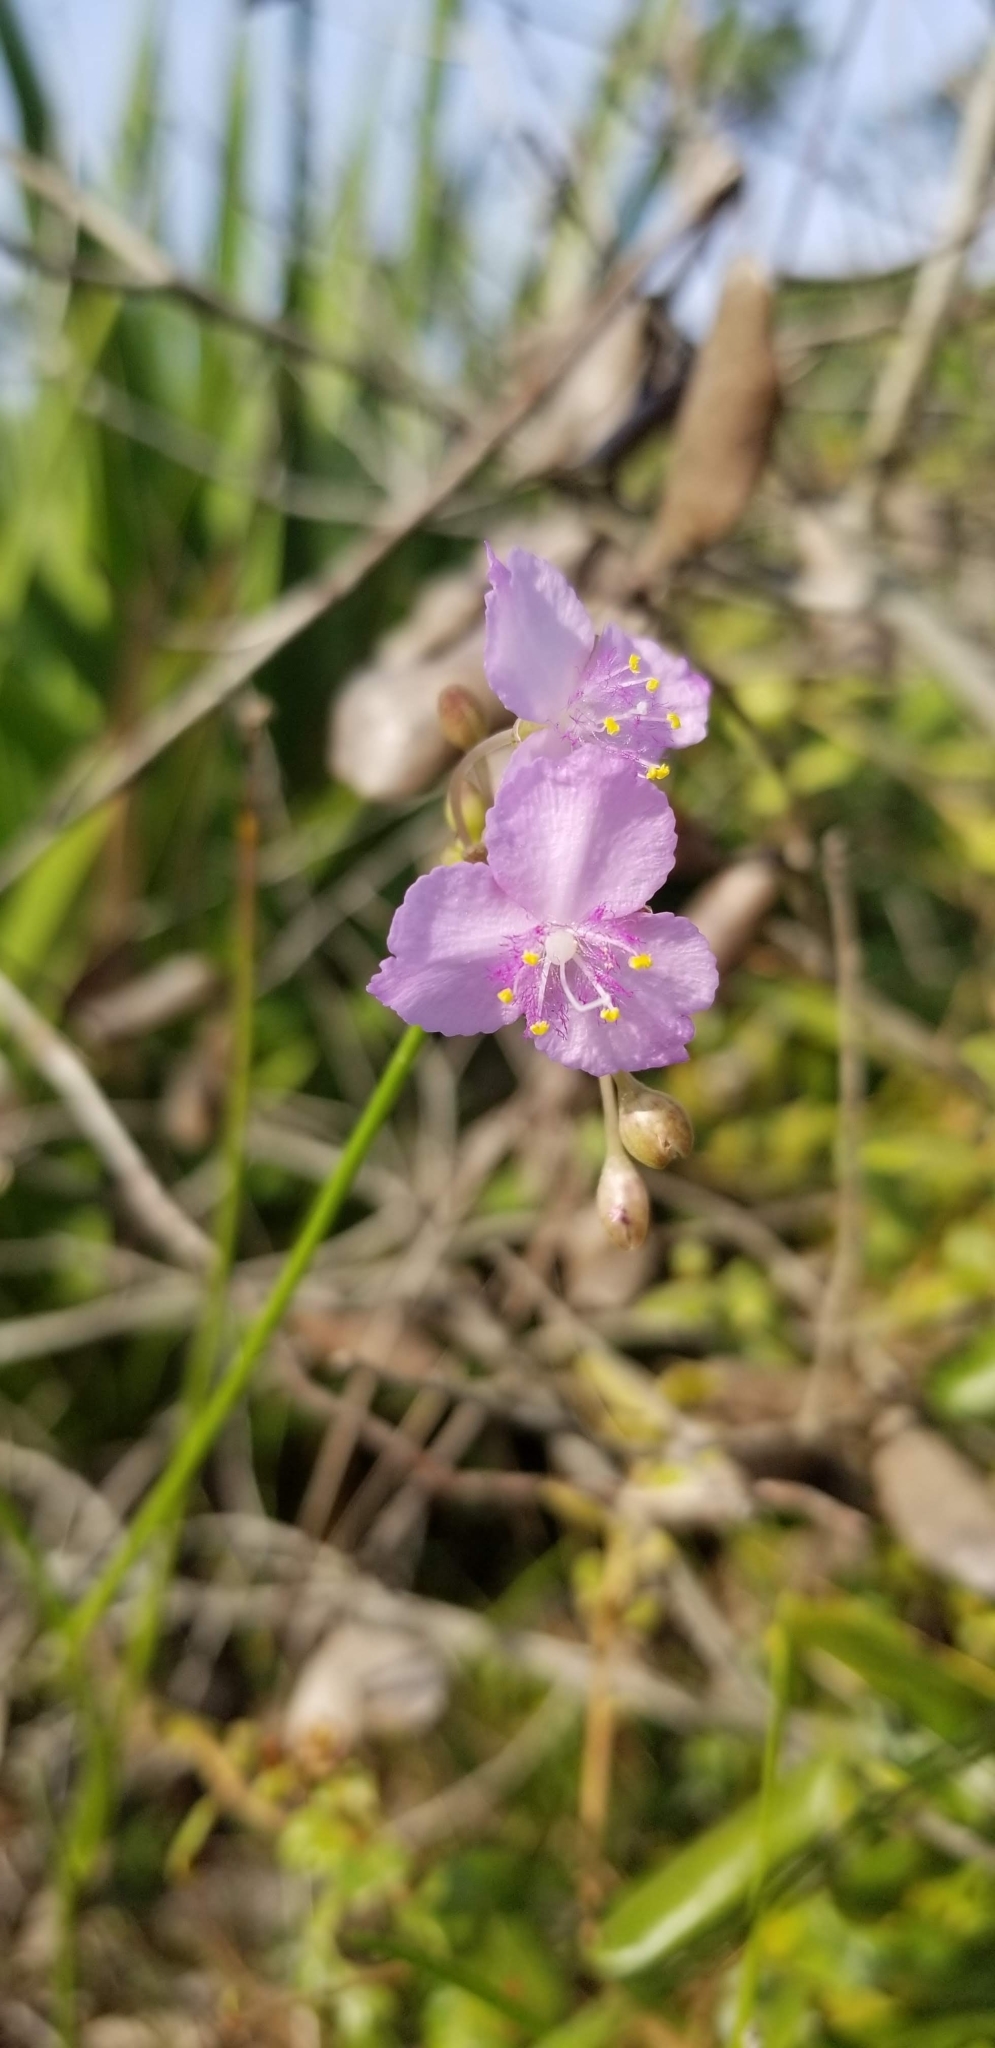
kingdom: Plantae
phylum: Tracheophyta
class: Liliopsida
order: Commelinales
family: Commelinaceae
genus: Callisia
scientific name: Callisia ornata
